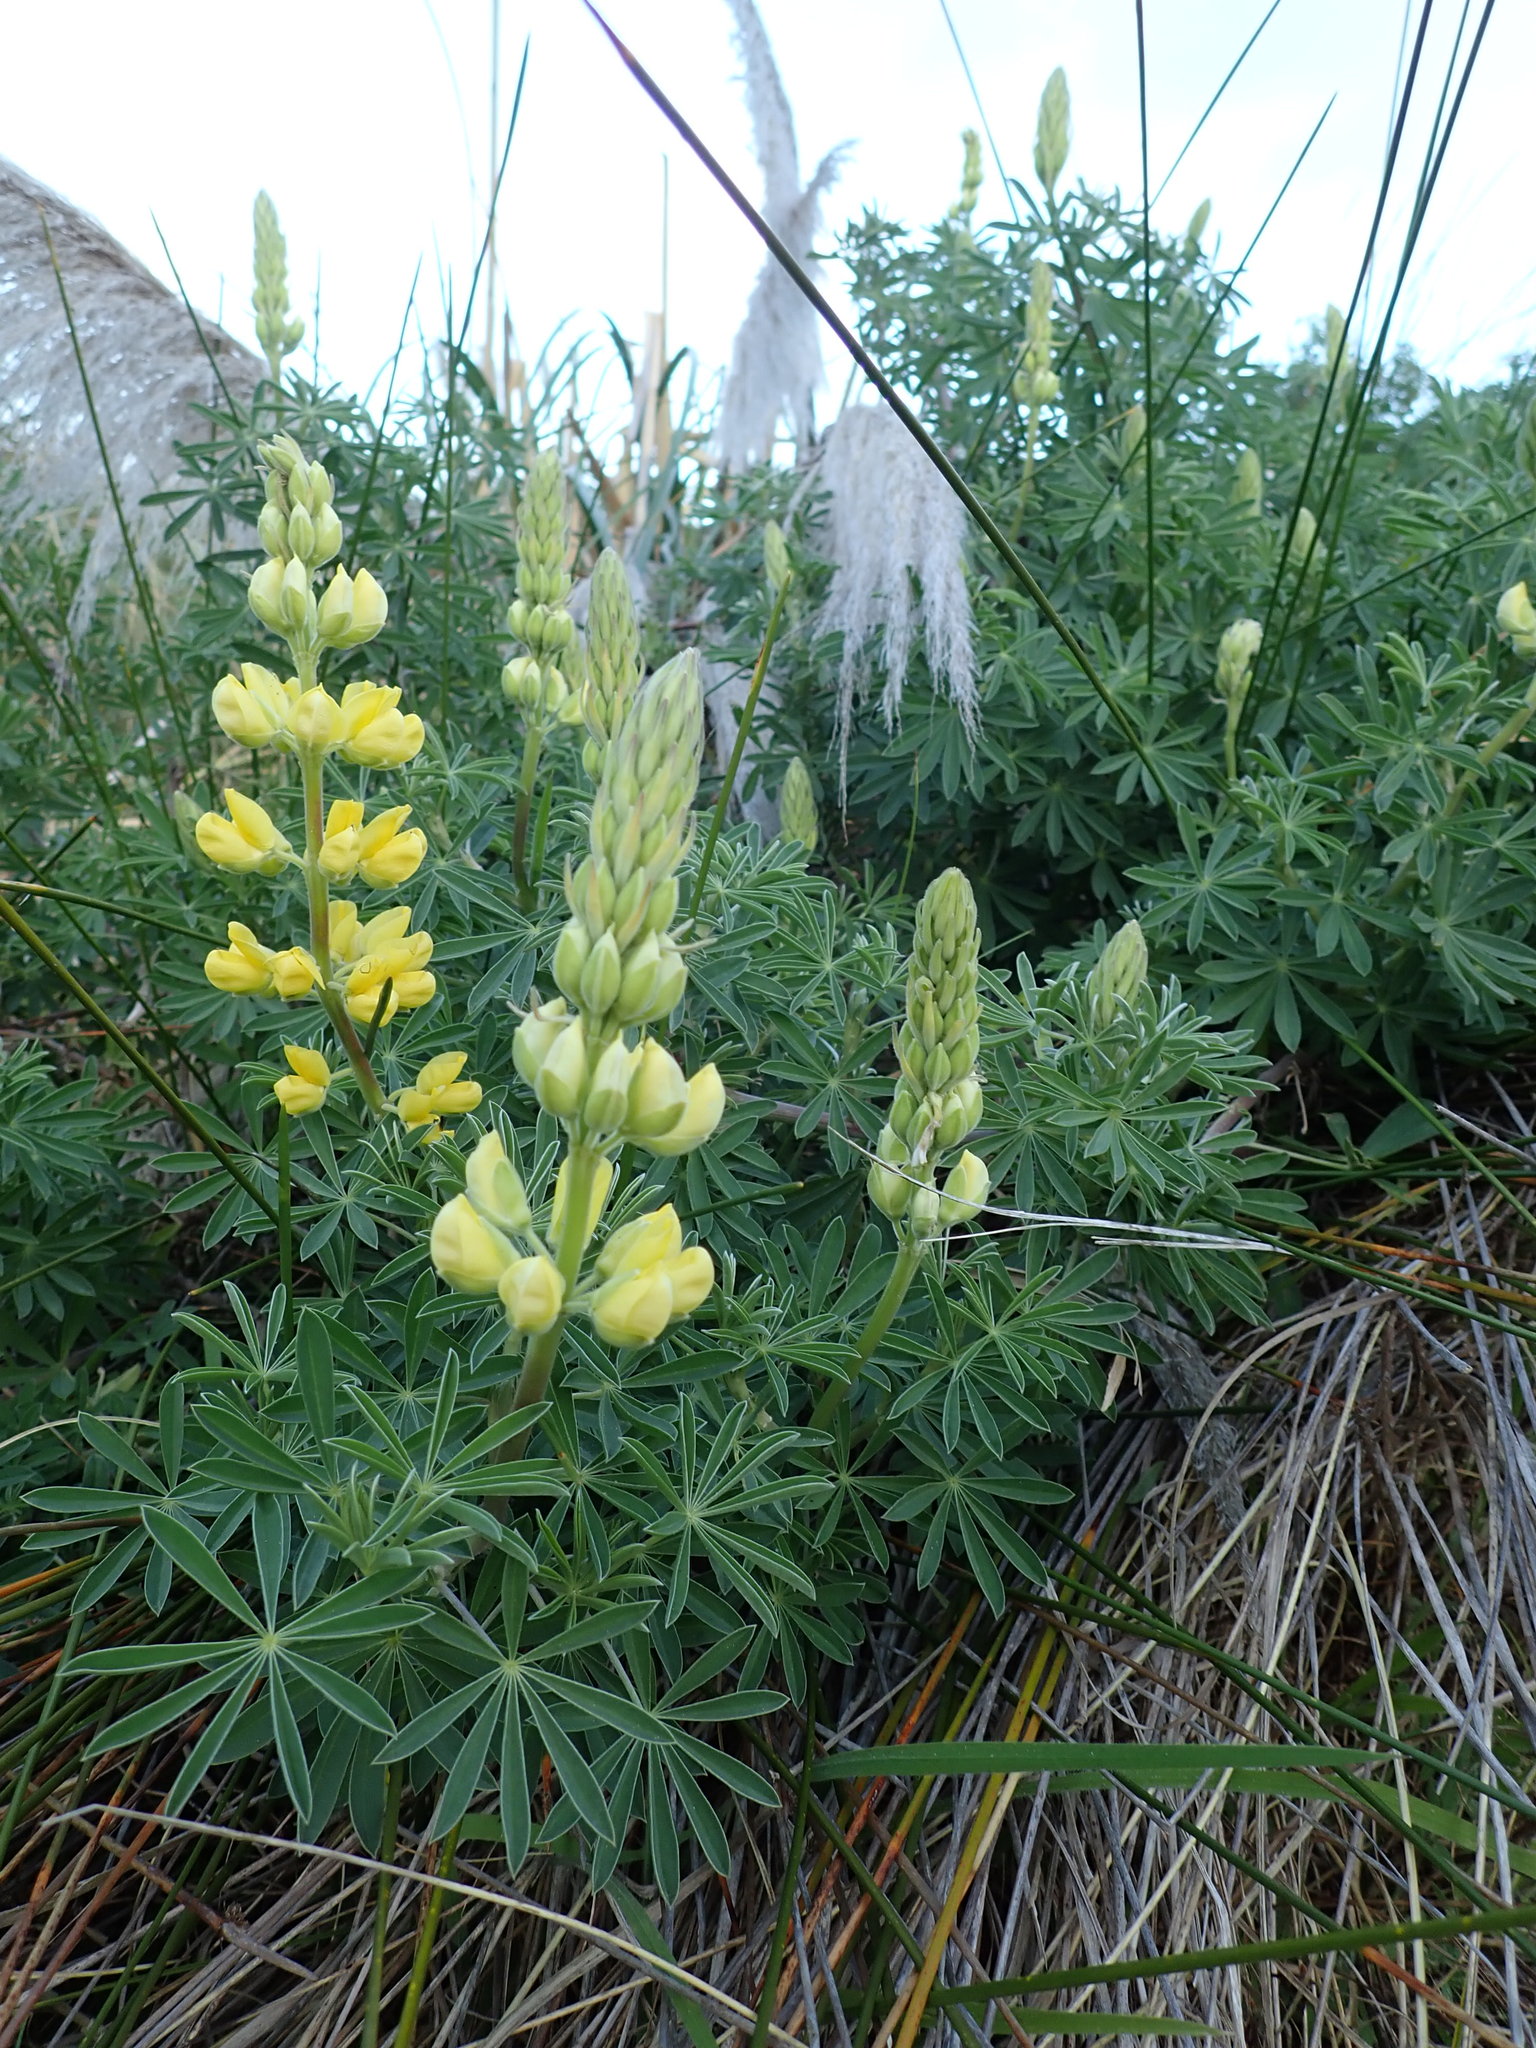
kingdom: Plantae
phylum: Tracheophyta
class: Magnoliopsida
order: Fabales
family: Fabaceae
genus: Lupinus
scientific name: Lupinus arboreus
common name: Yellow bush lupine
